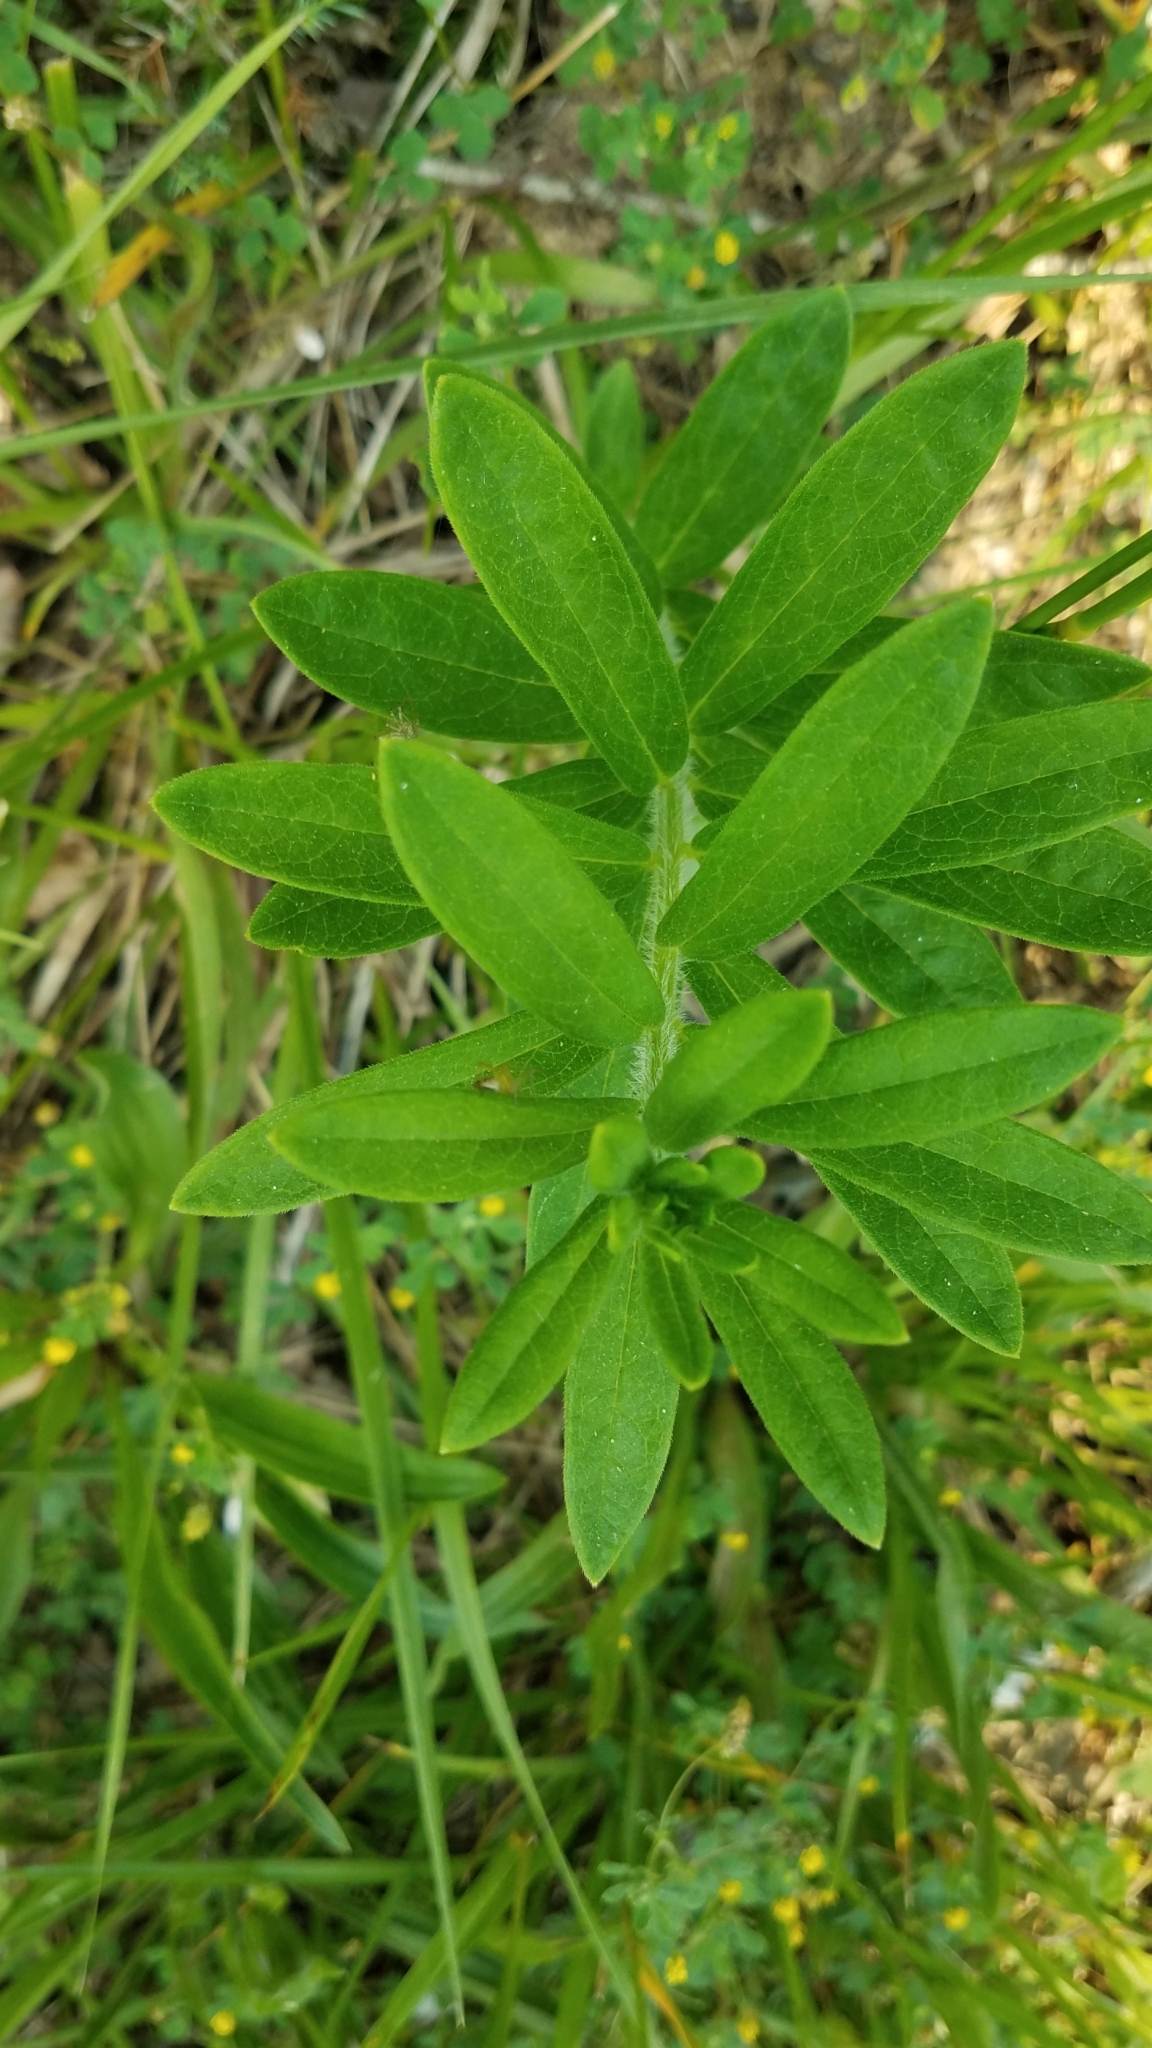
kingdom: Plantae
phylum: Tracheophyta
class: Magnoliopsida
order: Gentianales
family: Apocynaceae
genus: Asclepias
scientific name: Asclepias tuberosa
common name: Butterfly milkweed
